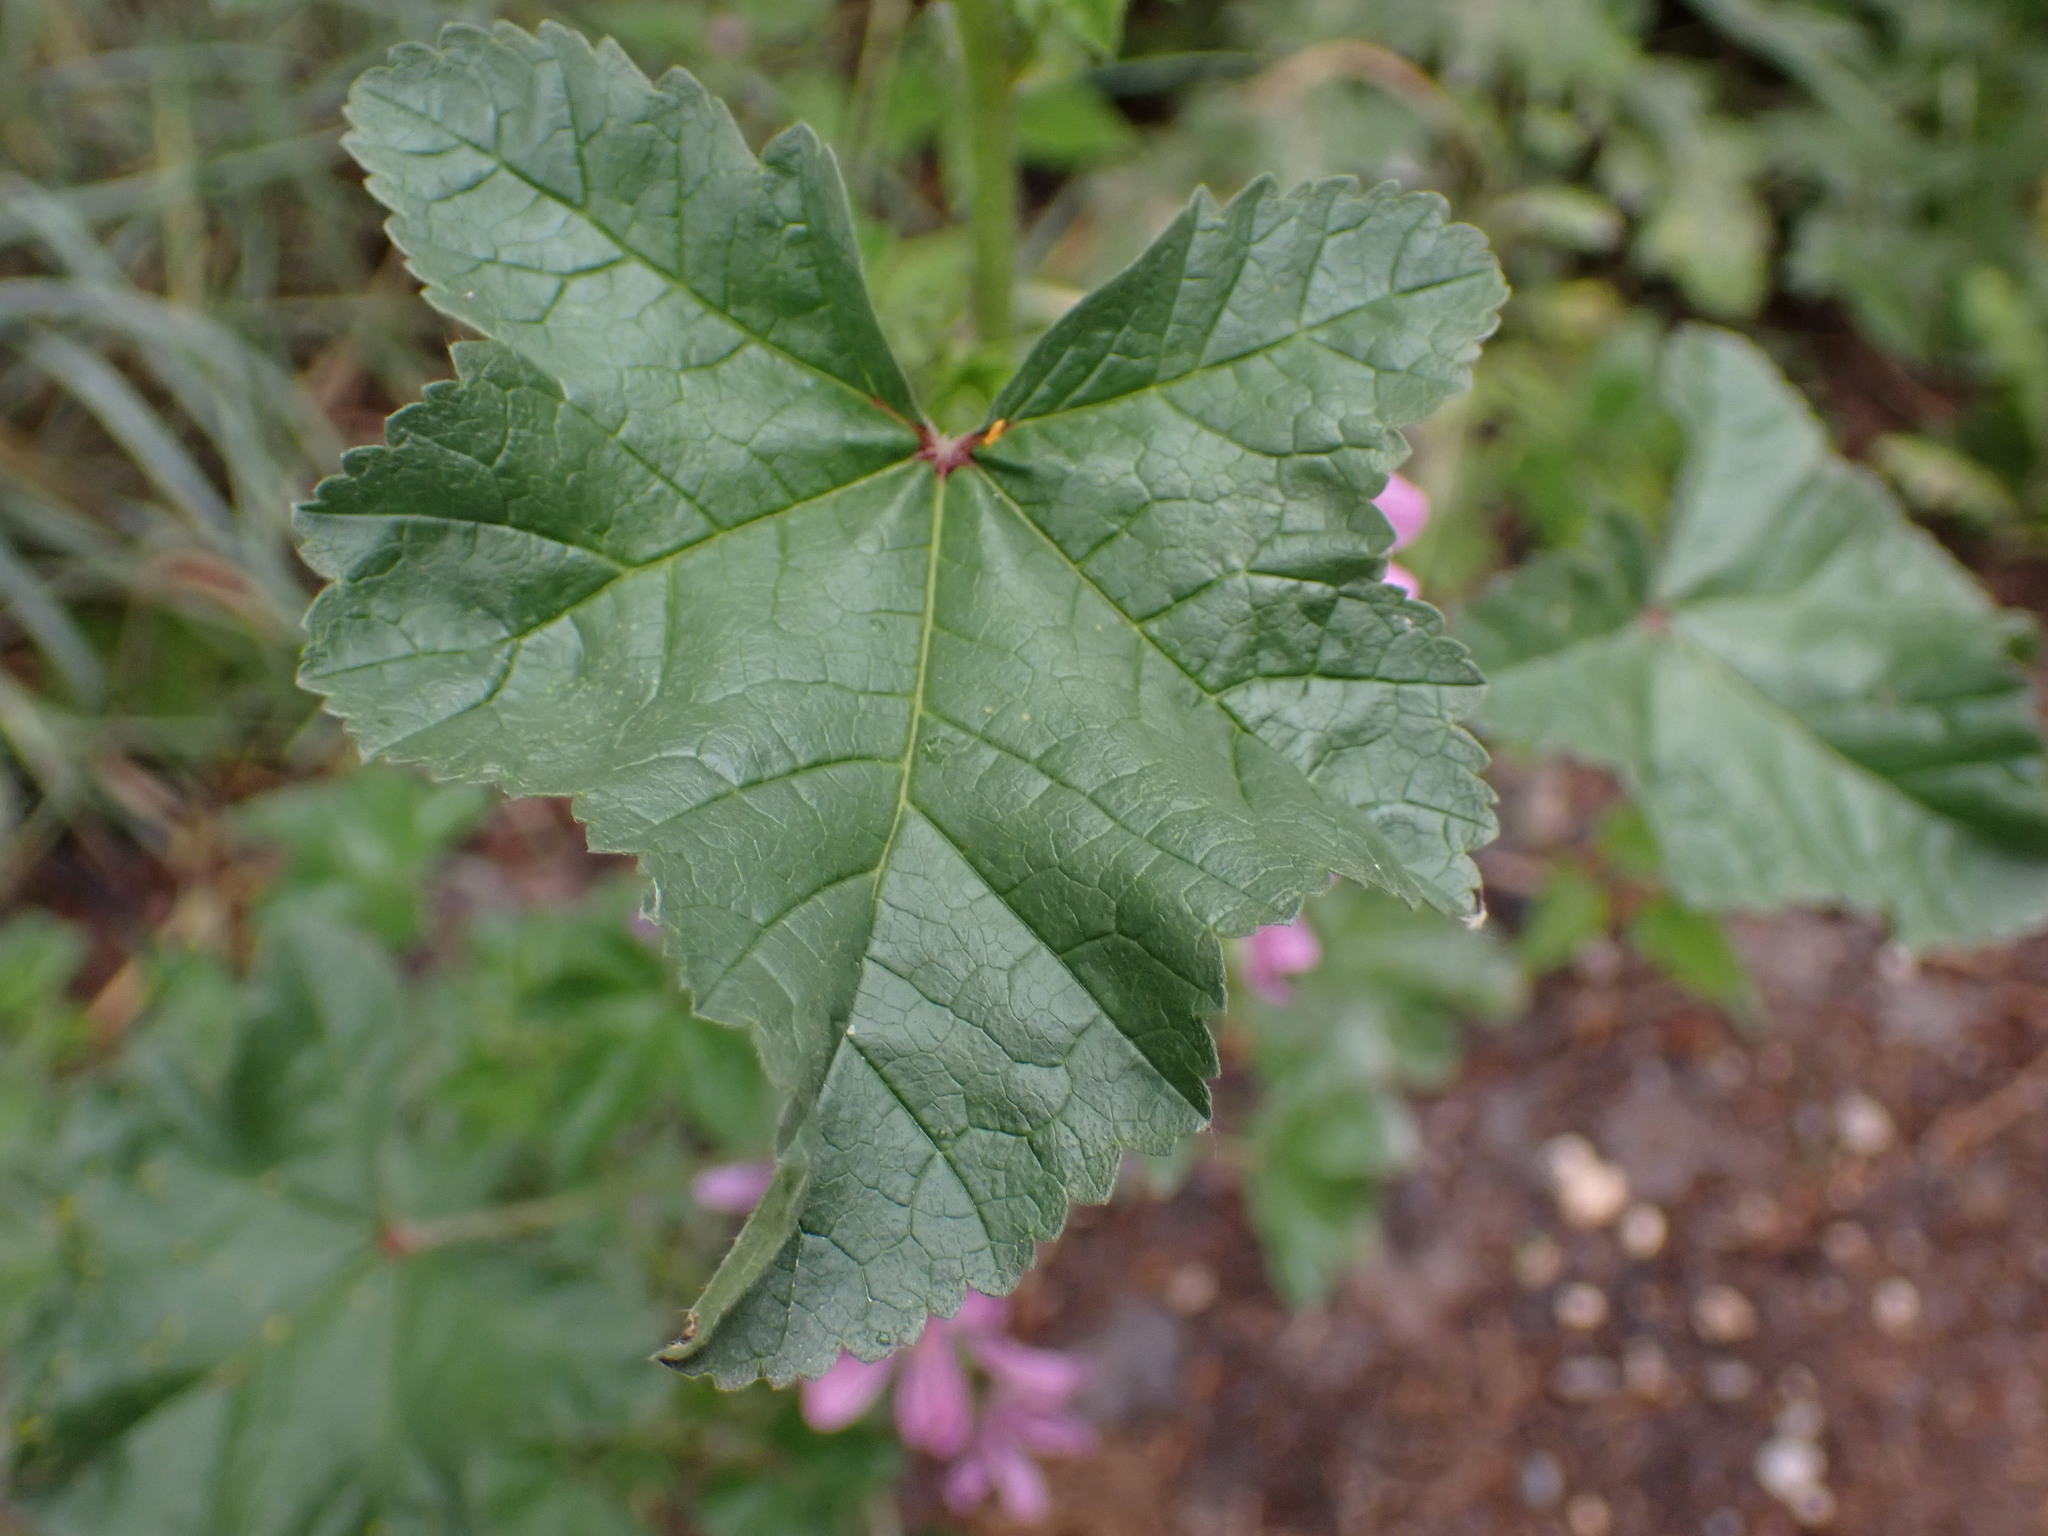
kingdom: Plantae
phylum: Tracheophyta
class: Magnoliopsida
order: Malvales
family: Malvaceae
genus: Malva
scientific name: Malva sylvestris
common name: Common mallow
